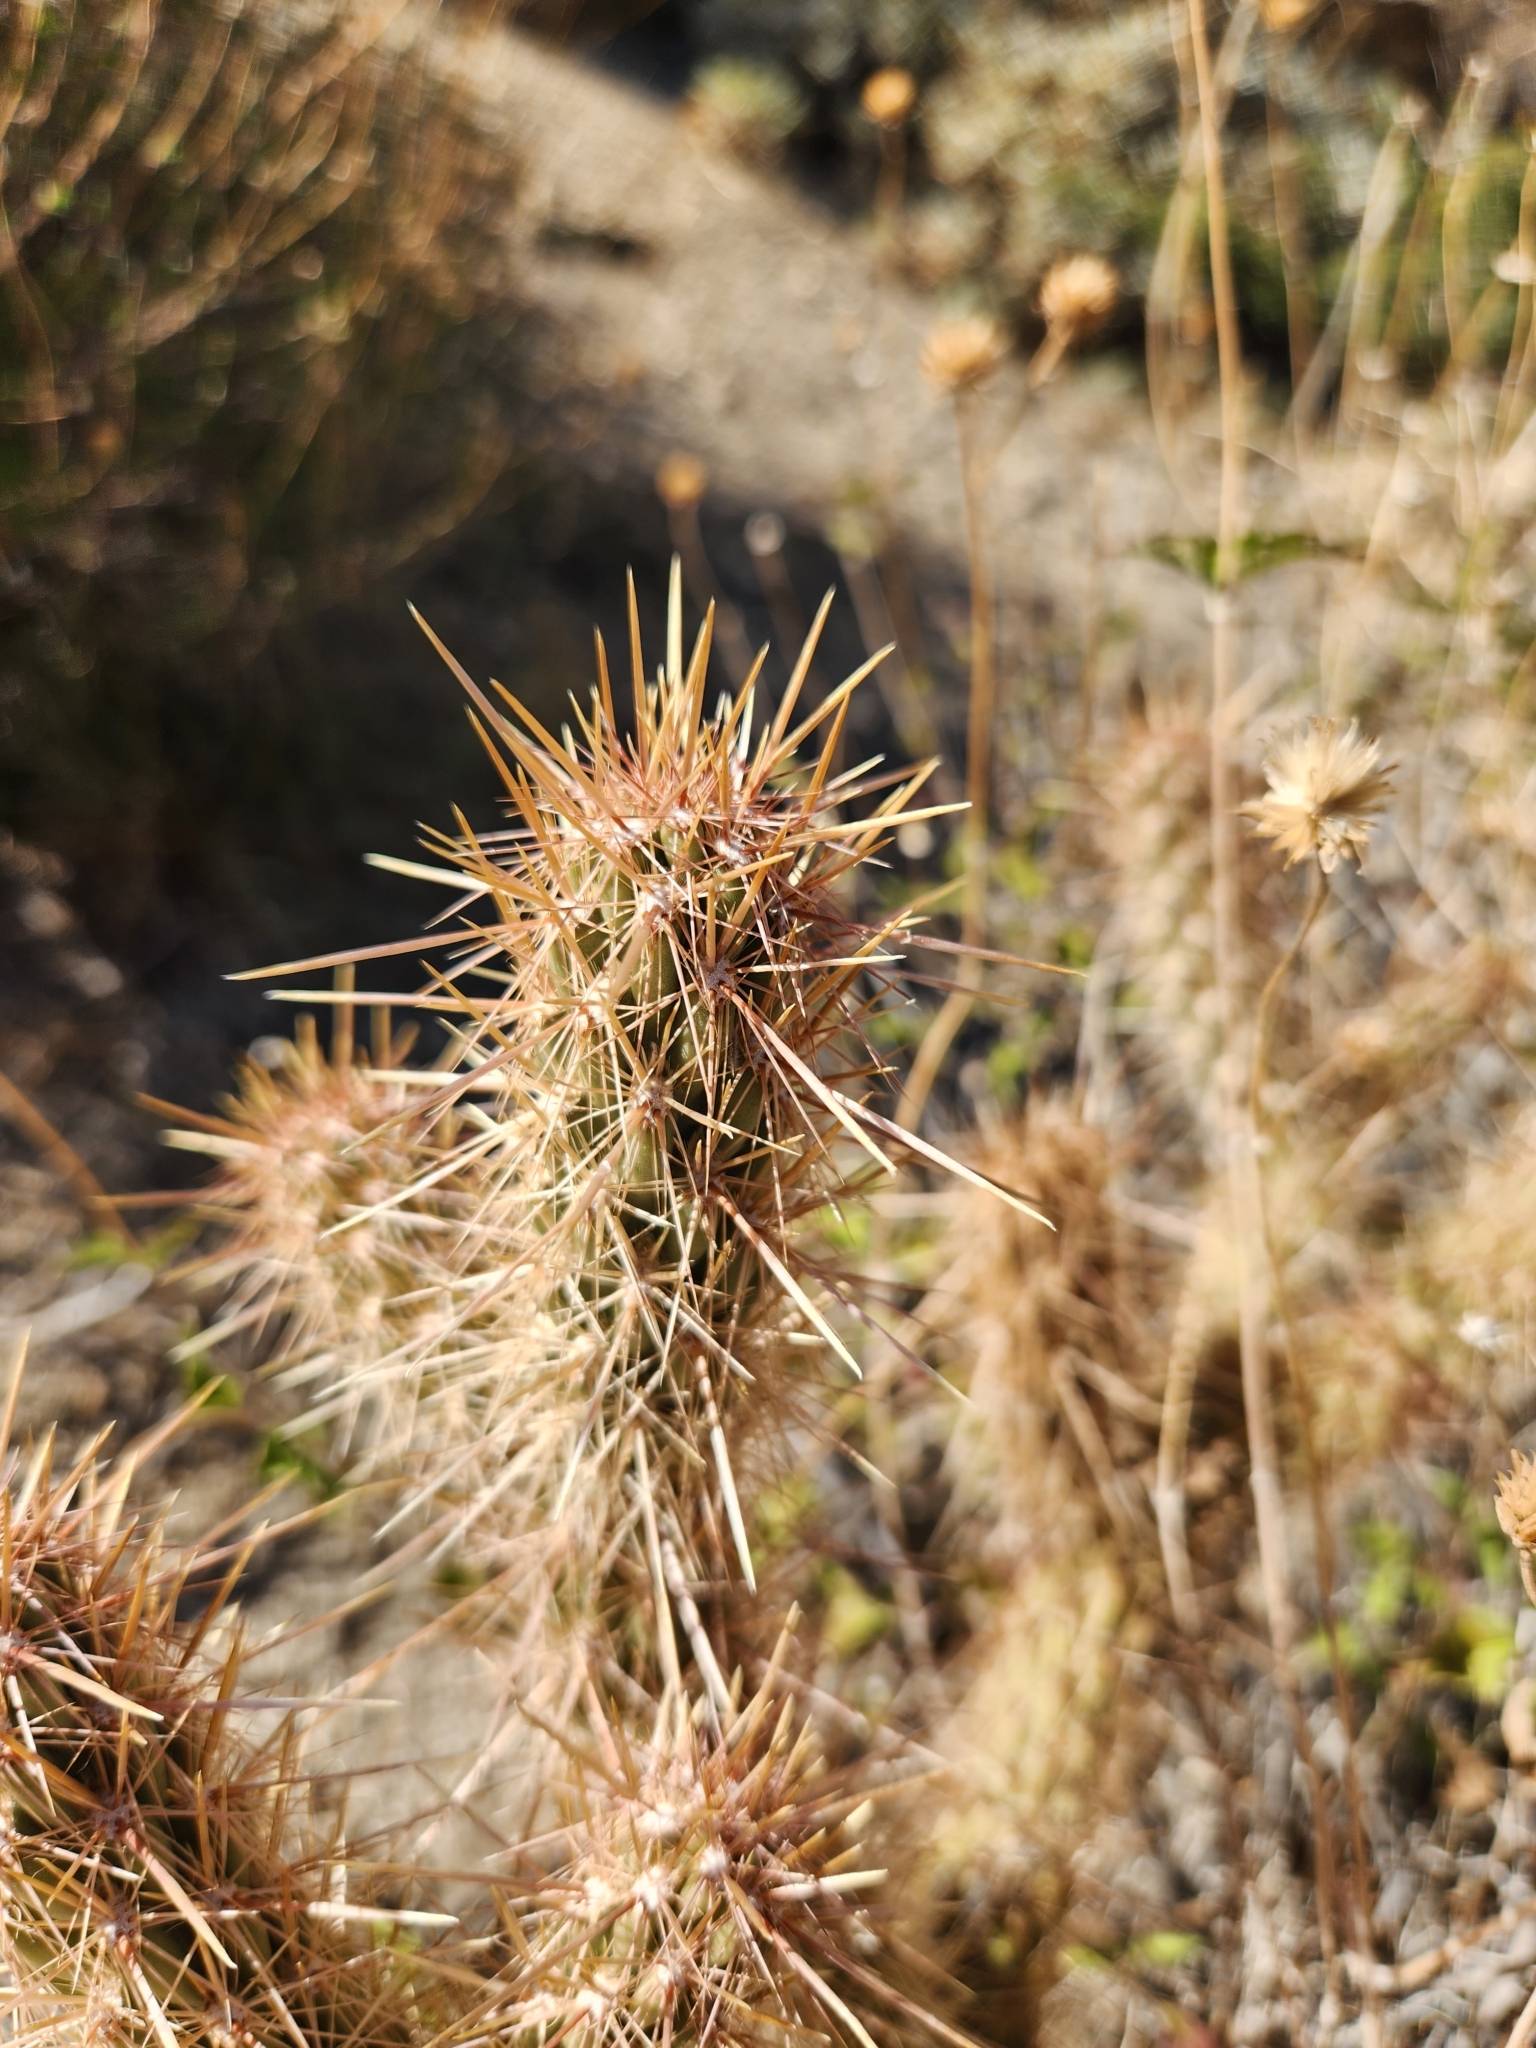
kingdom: Plantae
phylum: Tracheophyta
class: Magnoliopsida
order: Caryophyllales
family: Cactaceae
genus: Cylindropuntia
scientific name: Cylindropuntia ganderi
